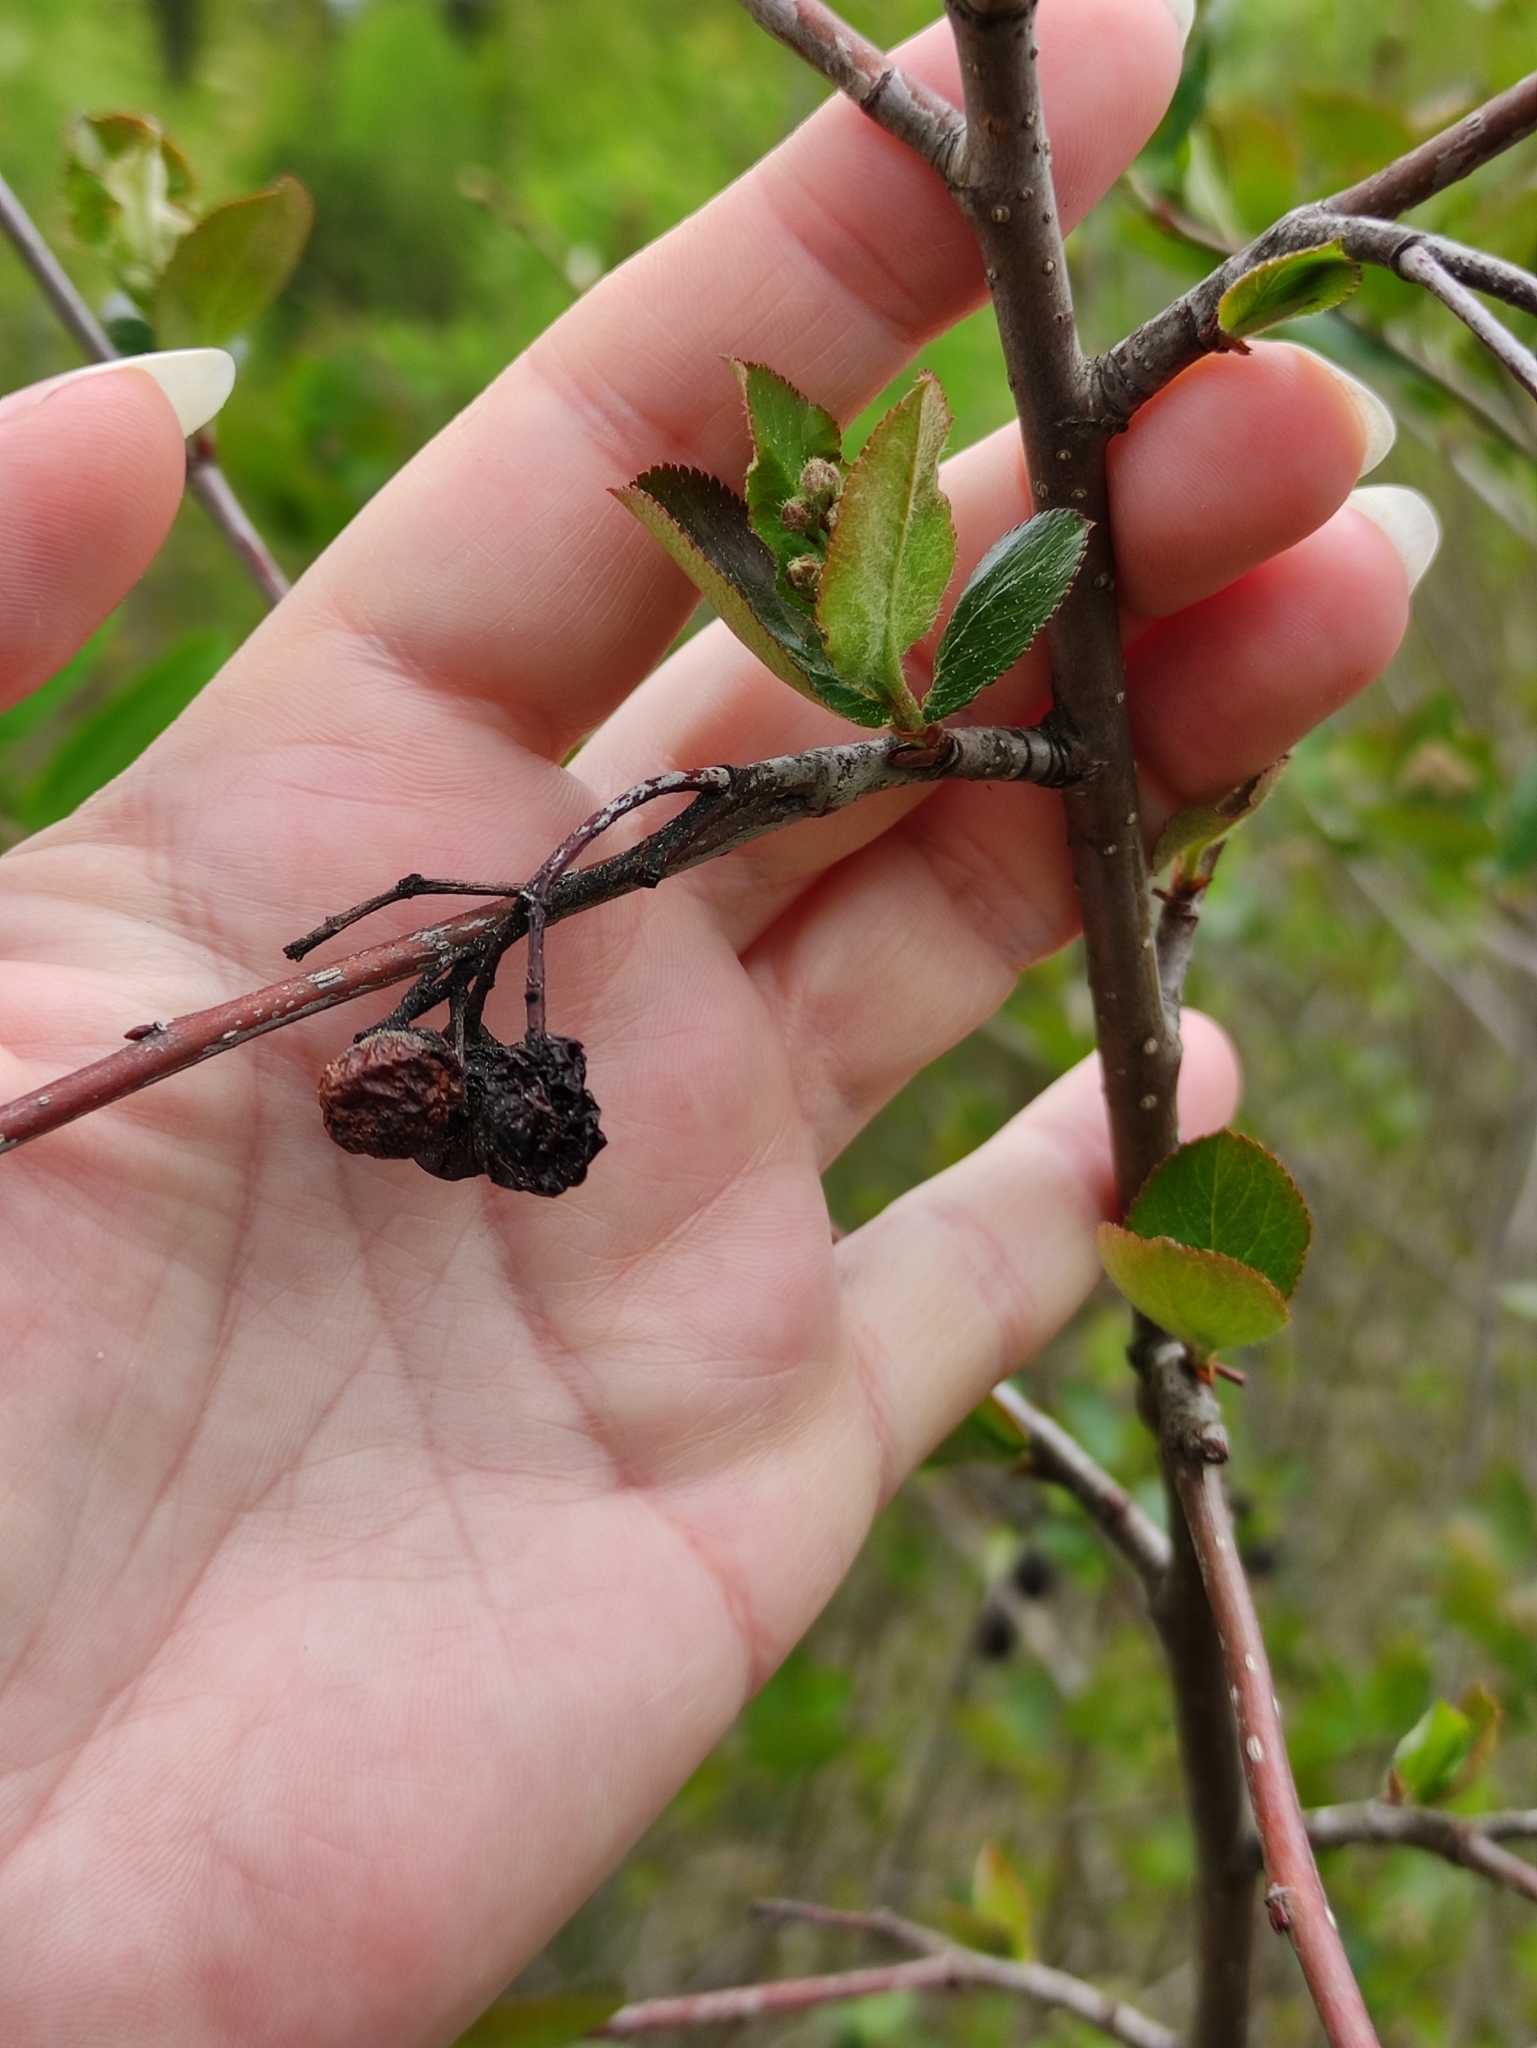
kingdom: Plantae
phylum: Tracheophyta
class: Magnoliopsida
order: Rosales
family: Rosaceae
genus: Sorbaronia
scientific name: Sorbaronia arsenii
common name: Arsène's mountain-ash
